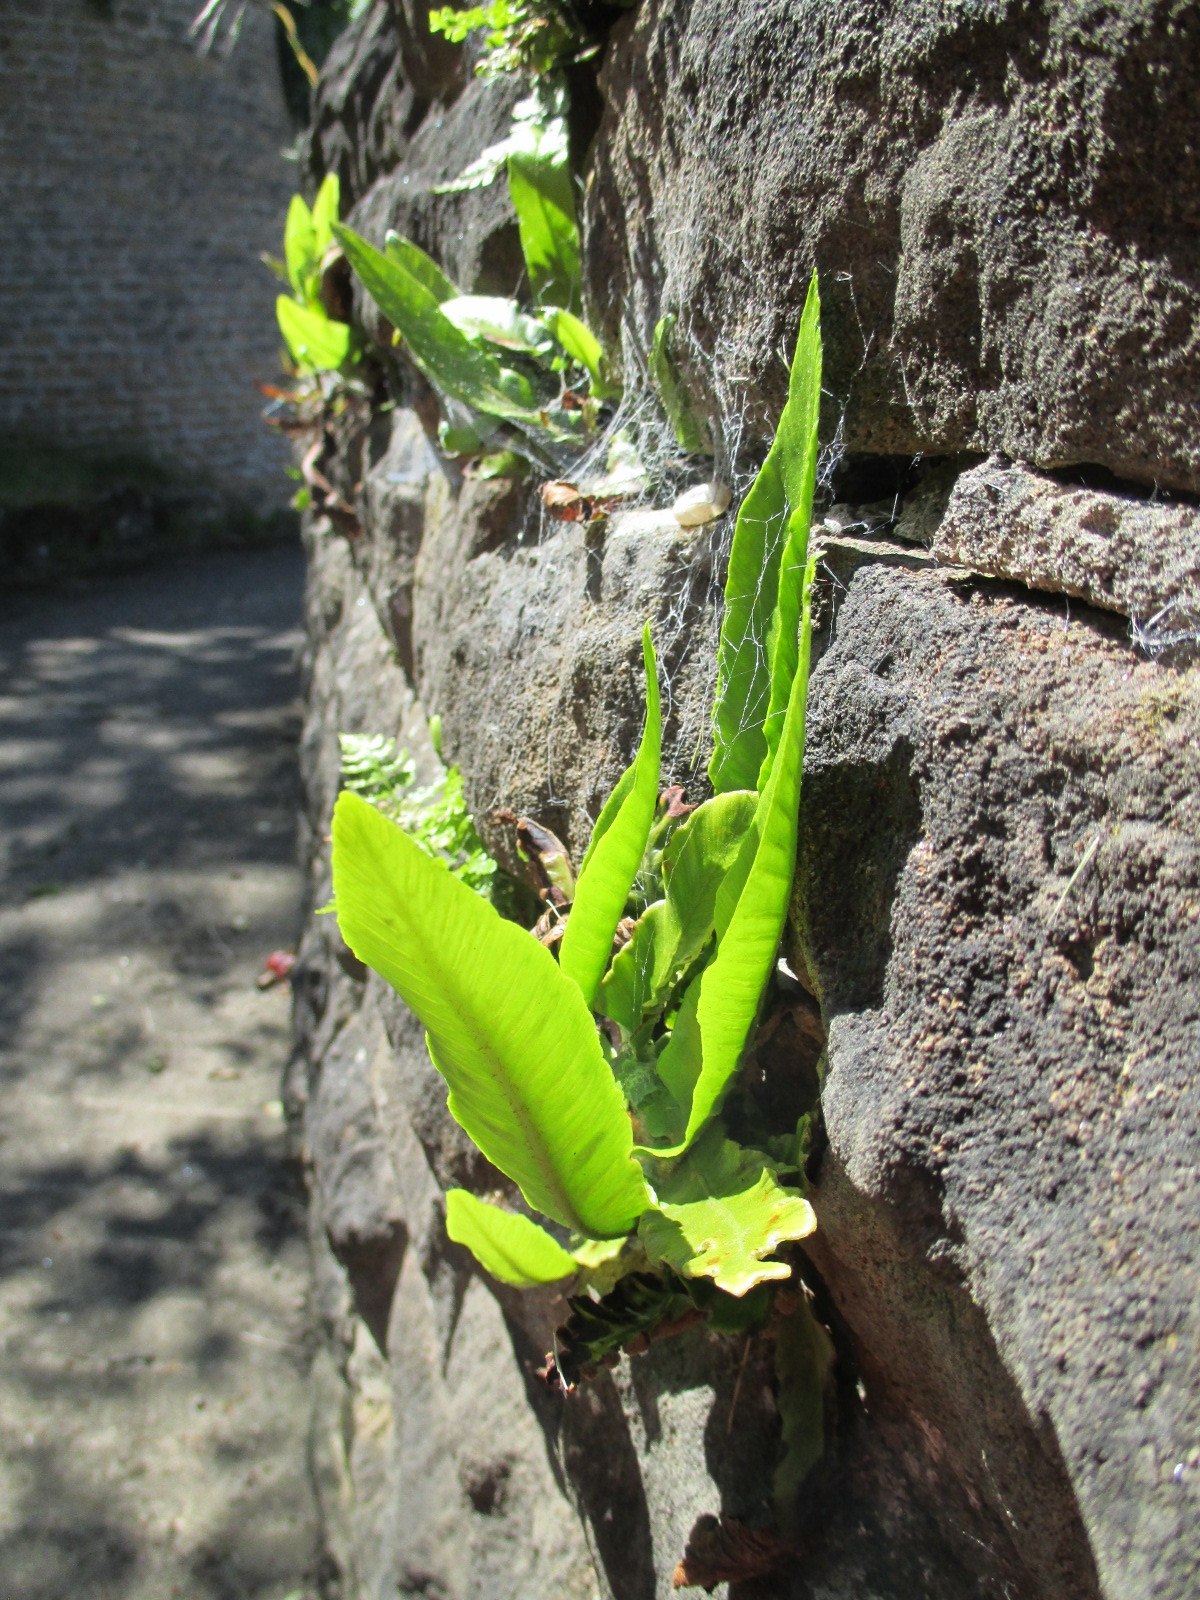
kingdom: Plantae
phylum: Tracheophyta
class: Polypodiopsida
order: Polypodiales
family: Aspleniaceae
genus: Asplenium
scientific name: Asplenium scolopendrium
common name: Hart's-tongue fern
